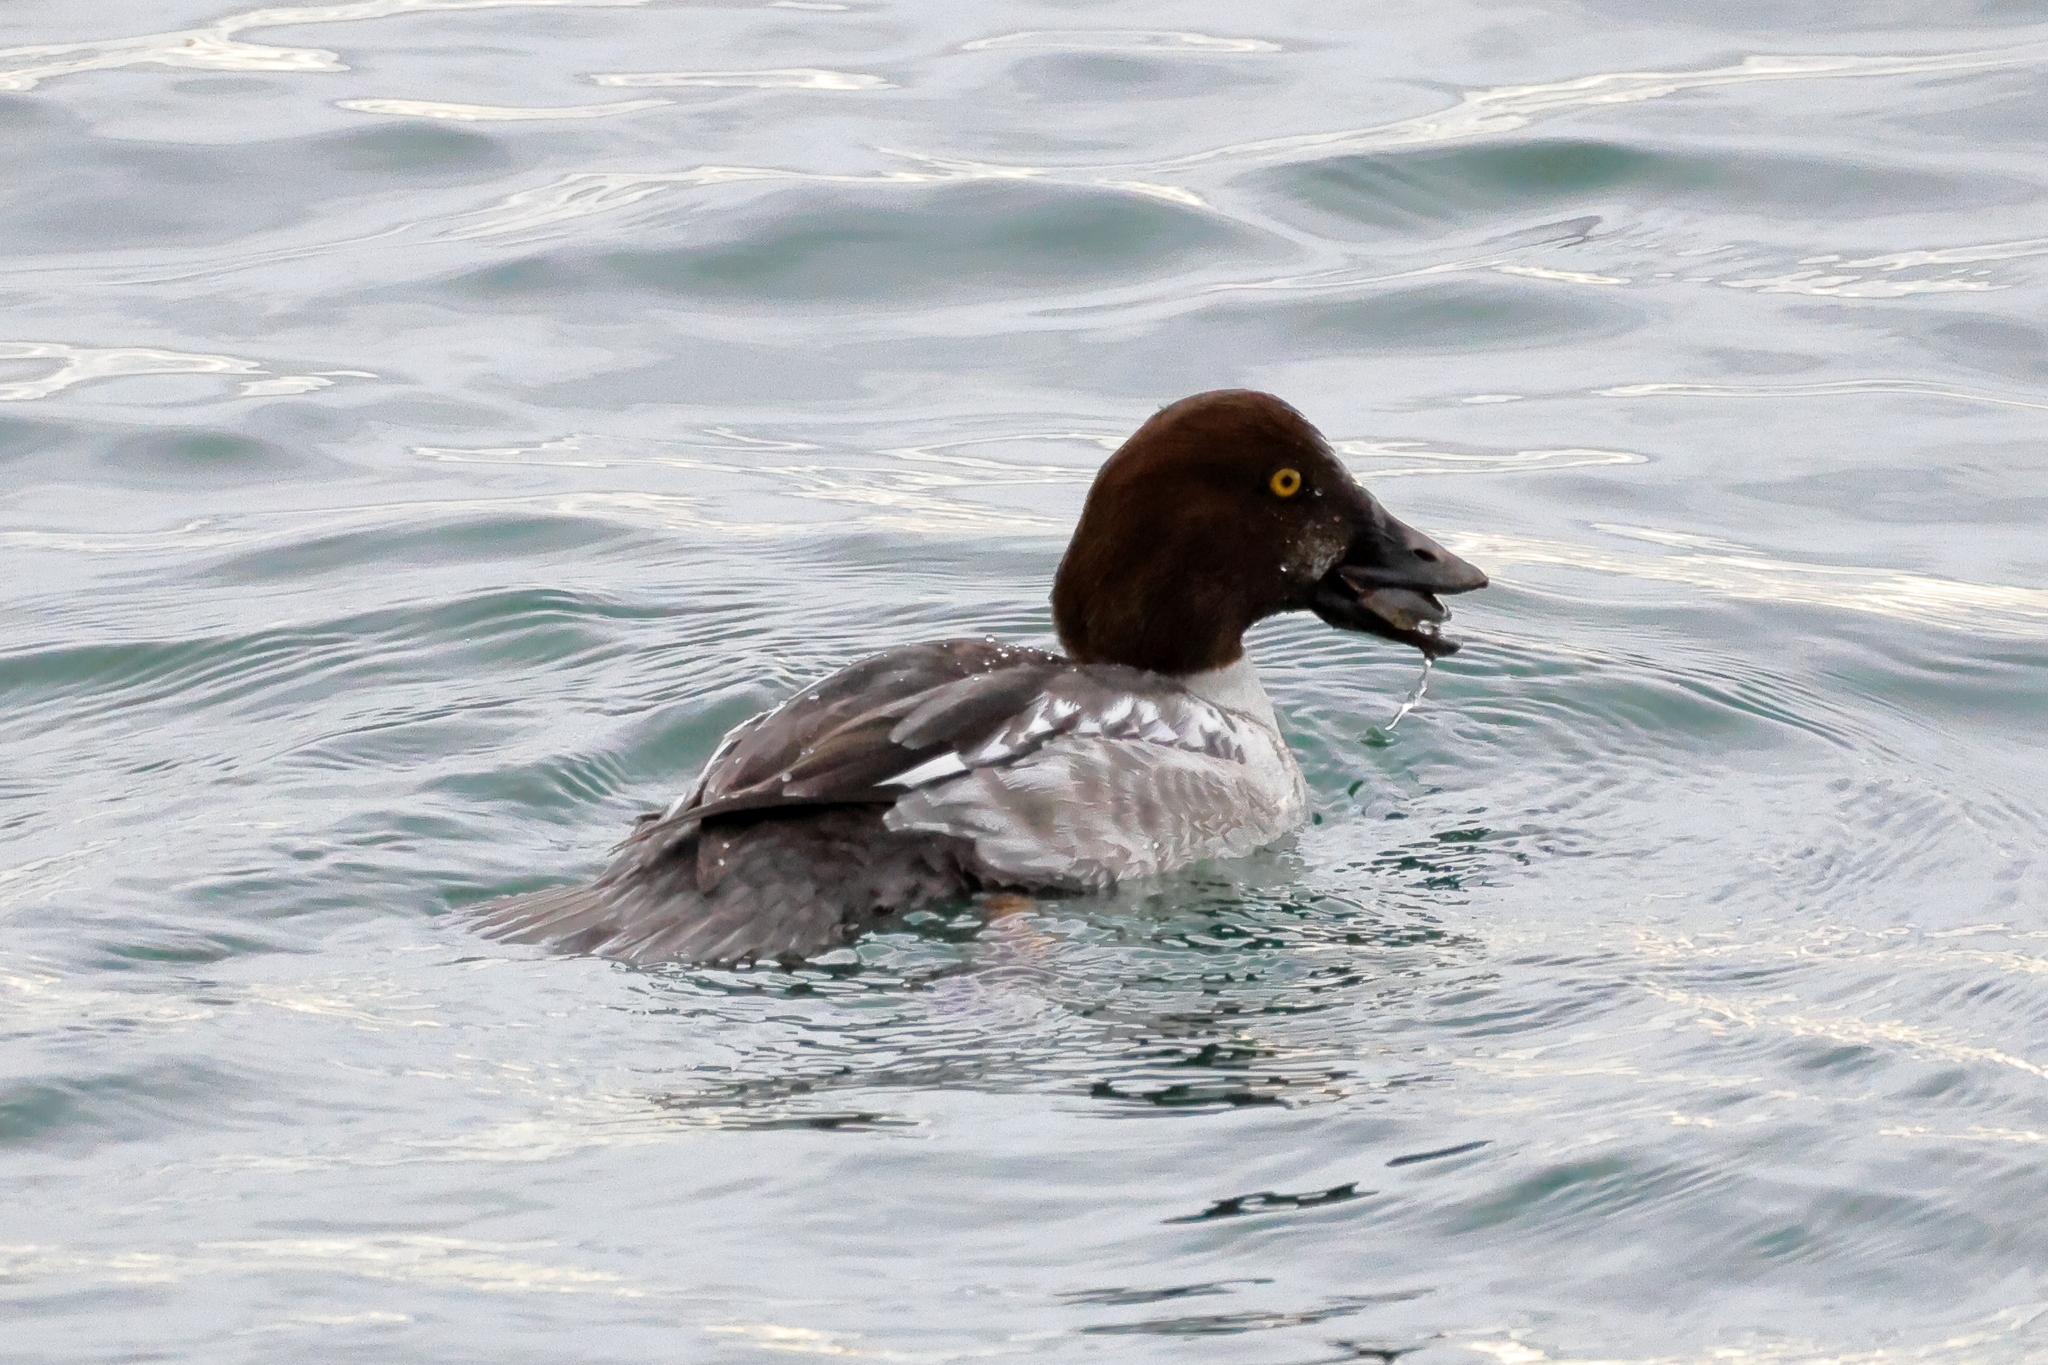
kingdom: Animalia
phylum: Chordata
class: Aves
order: Anseriformes
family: Anatidae
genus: Bucephala
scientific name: Bucephala clangula
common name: Common goldeneye
